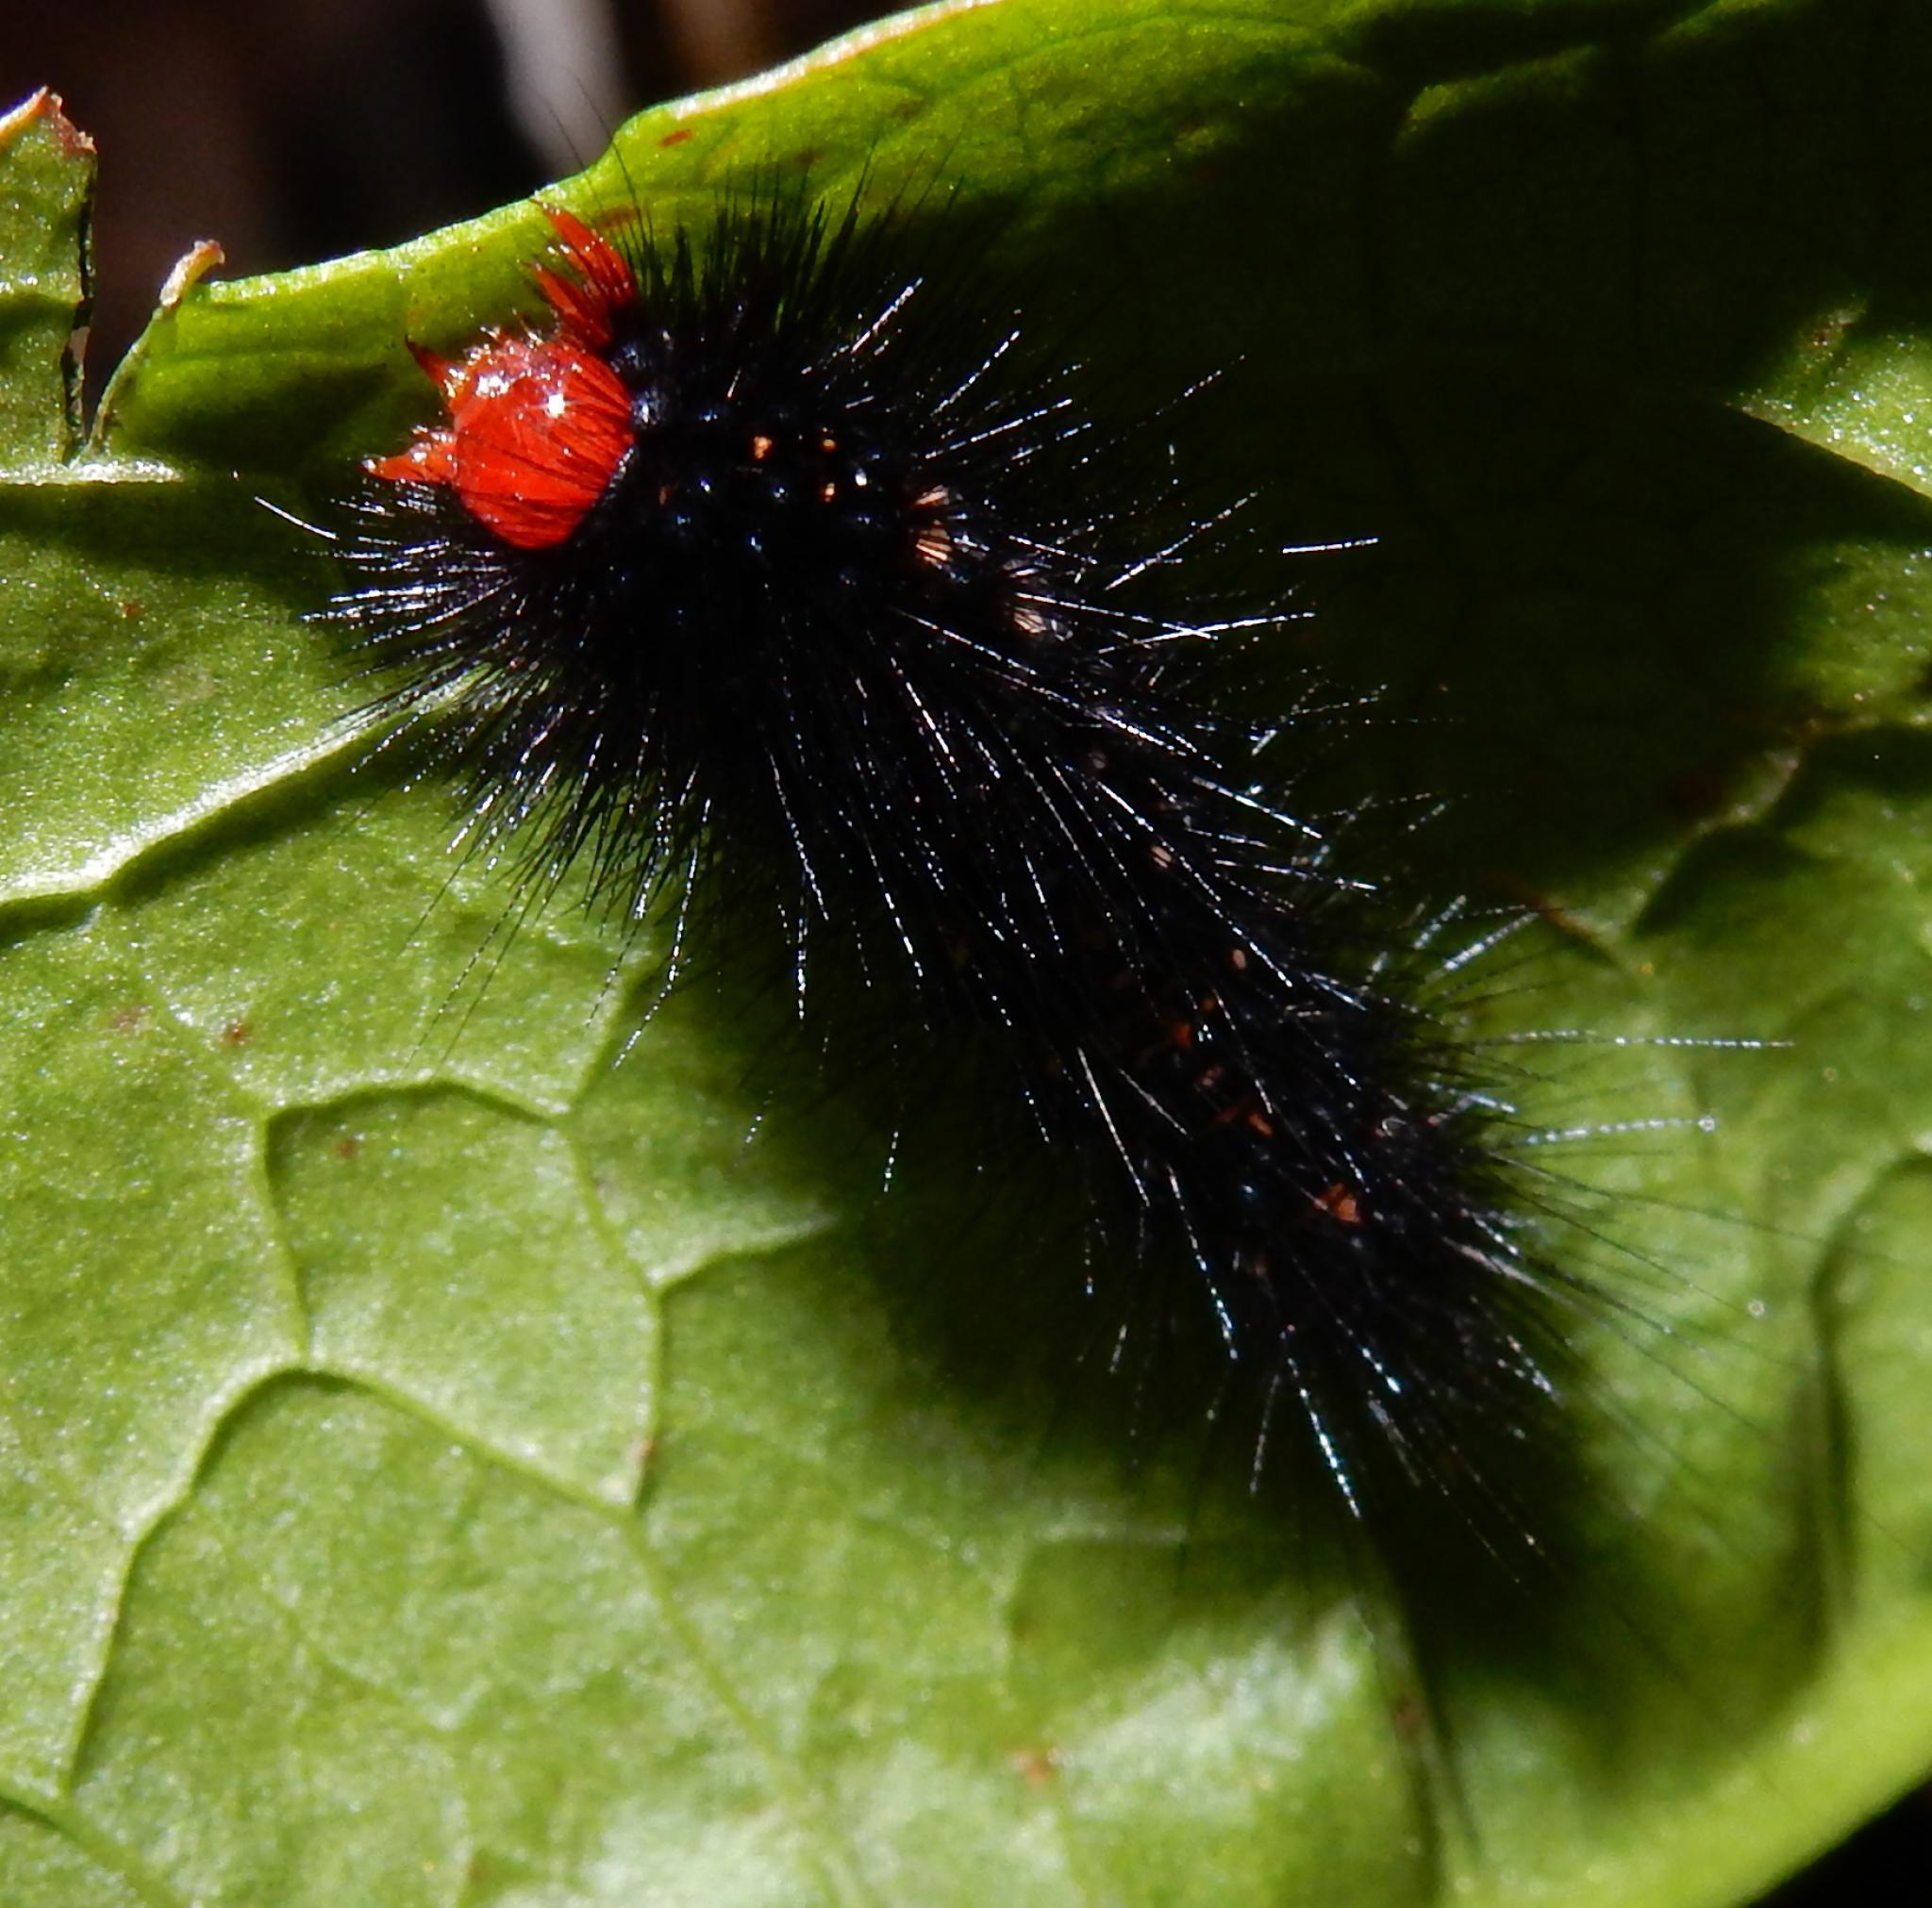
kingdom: Animalia
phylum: Arthropoda
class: Insecta
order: Lepidoptera
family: Erebidae
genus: Afromurzinia
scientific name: Afromurzinia lutescens
